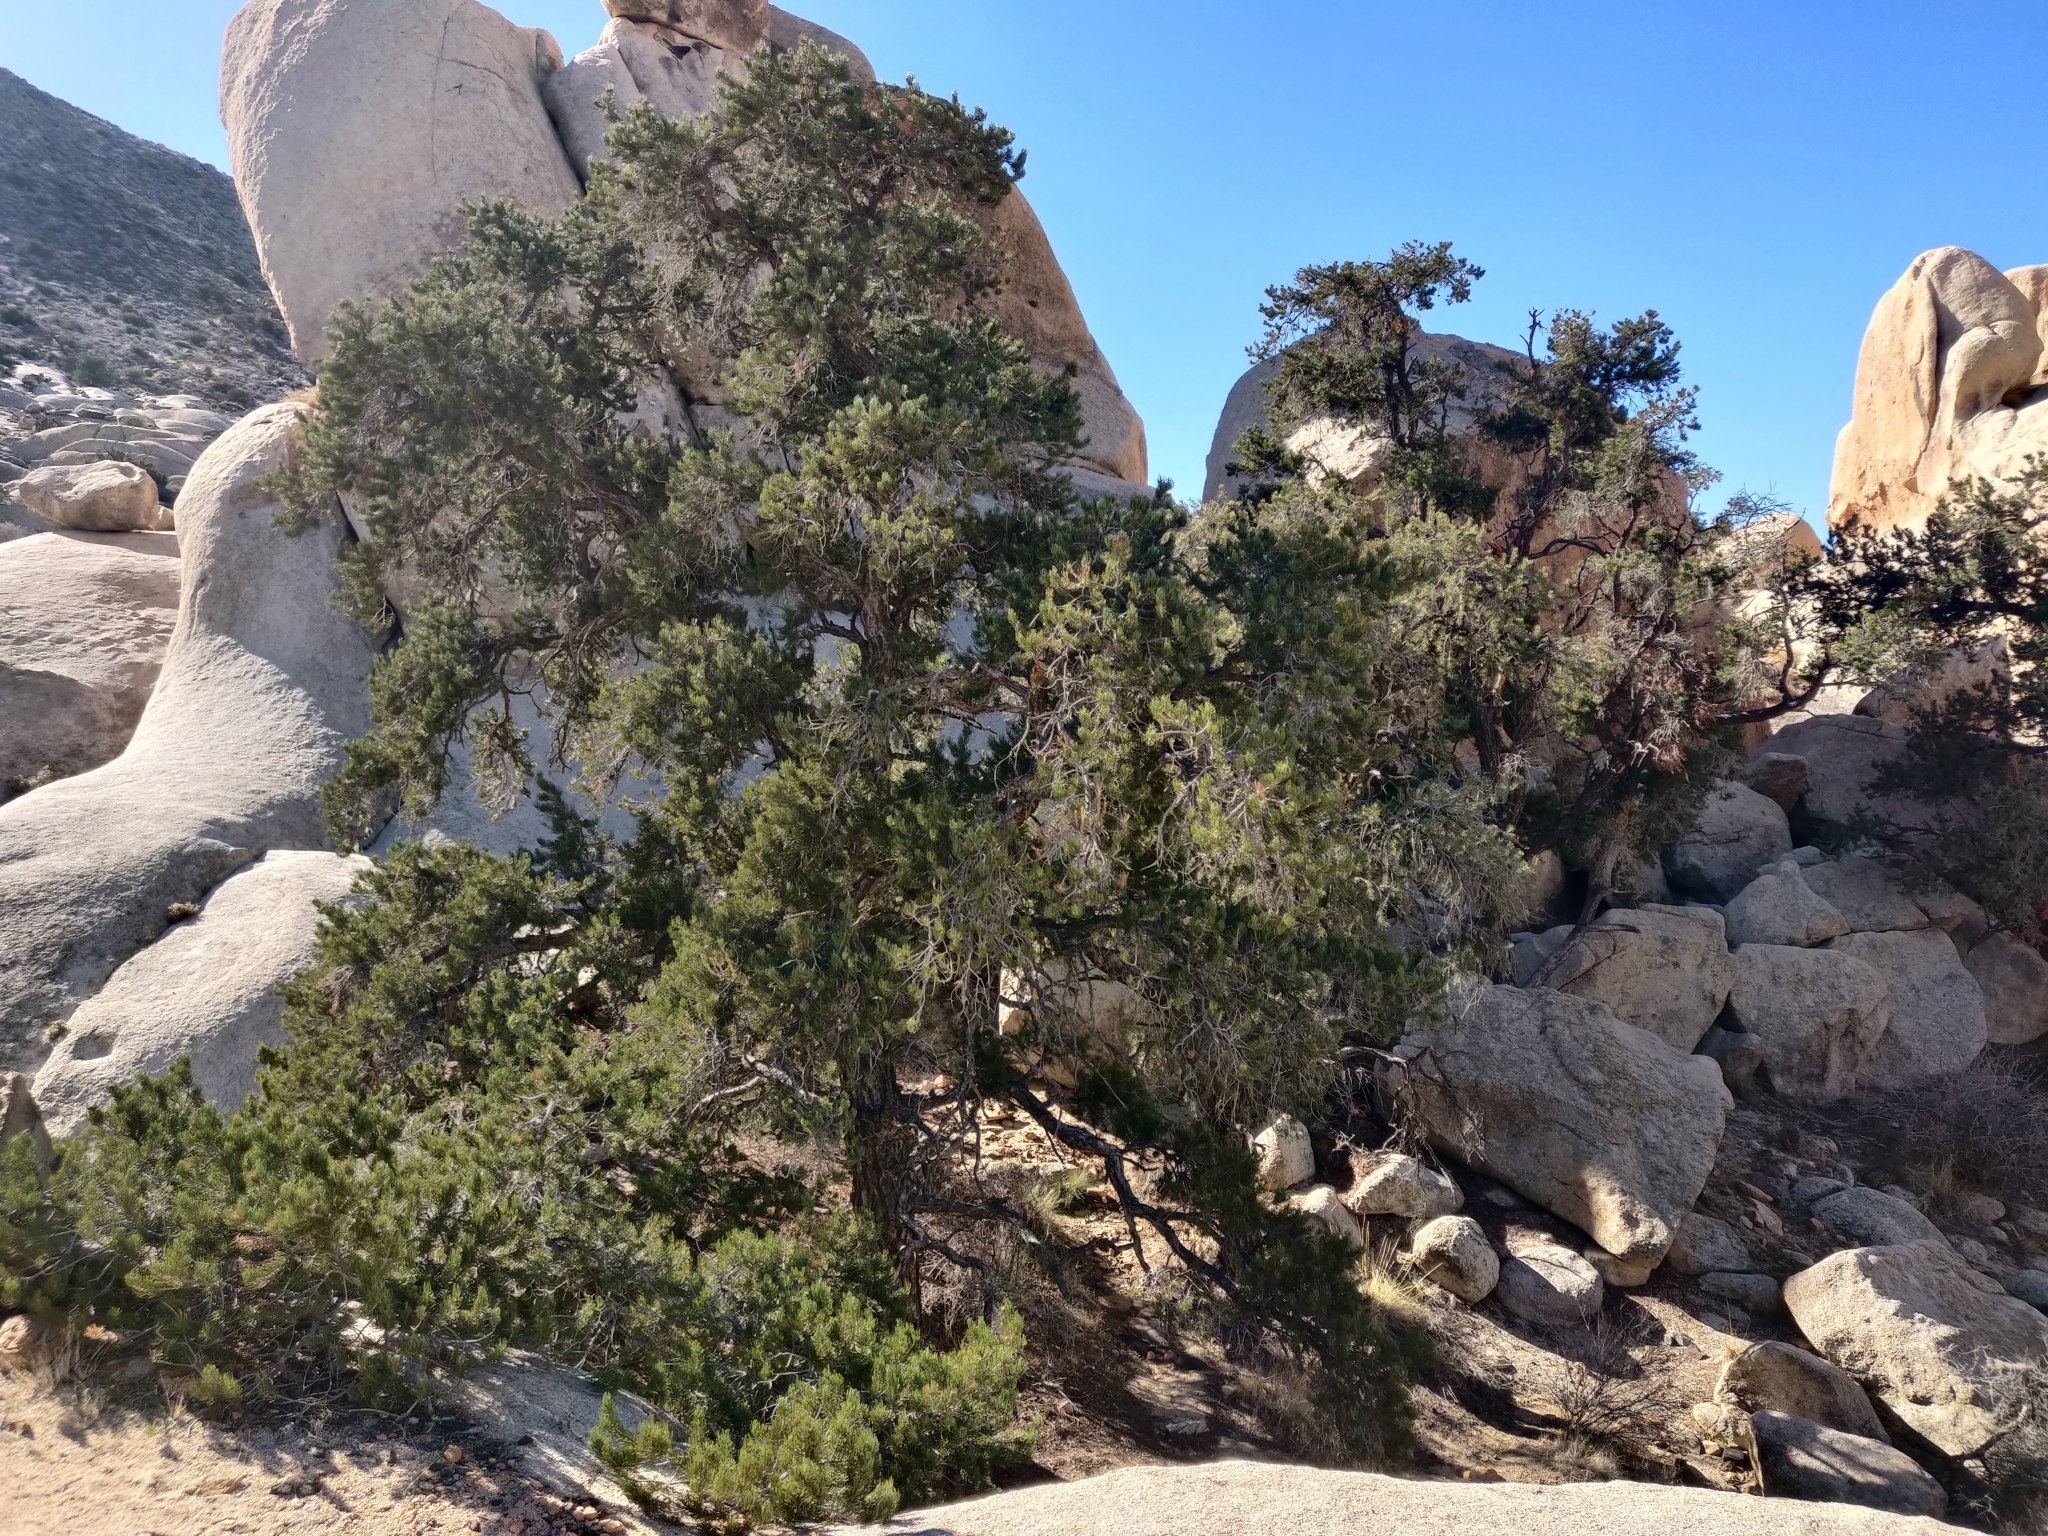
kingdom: Plantae
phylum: Tracheophyta
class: Pinopsida
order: Pinales
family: Pinaceae
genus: Pinus
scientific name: Pinus monophylla
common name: One-leaved nut pine
